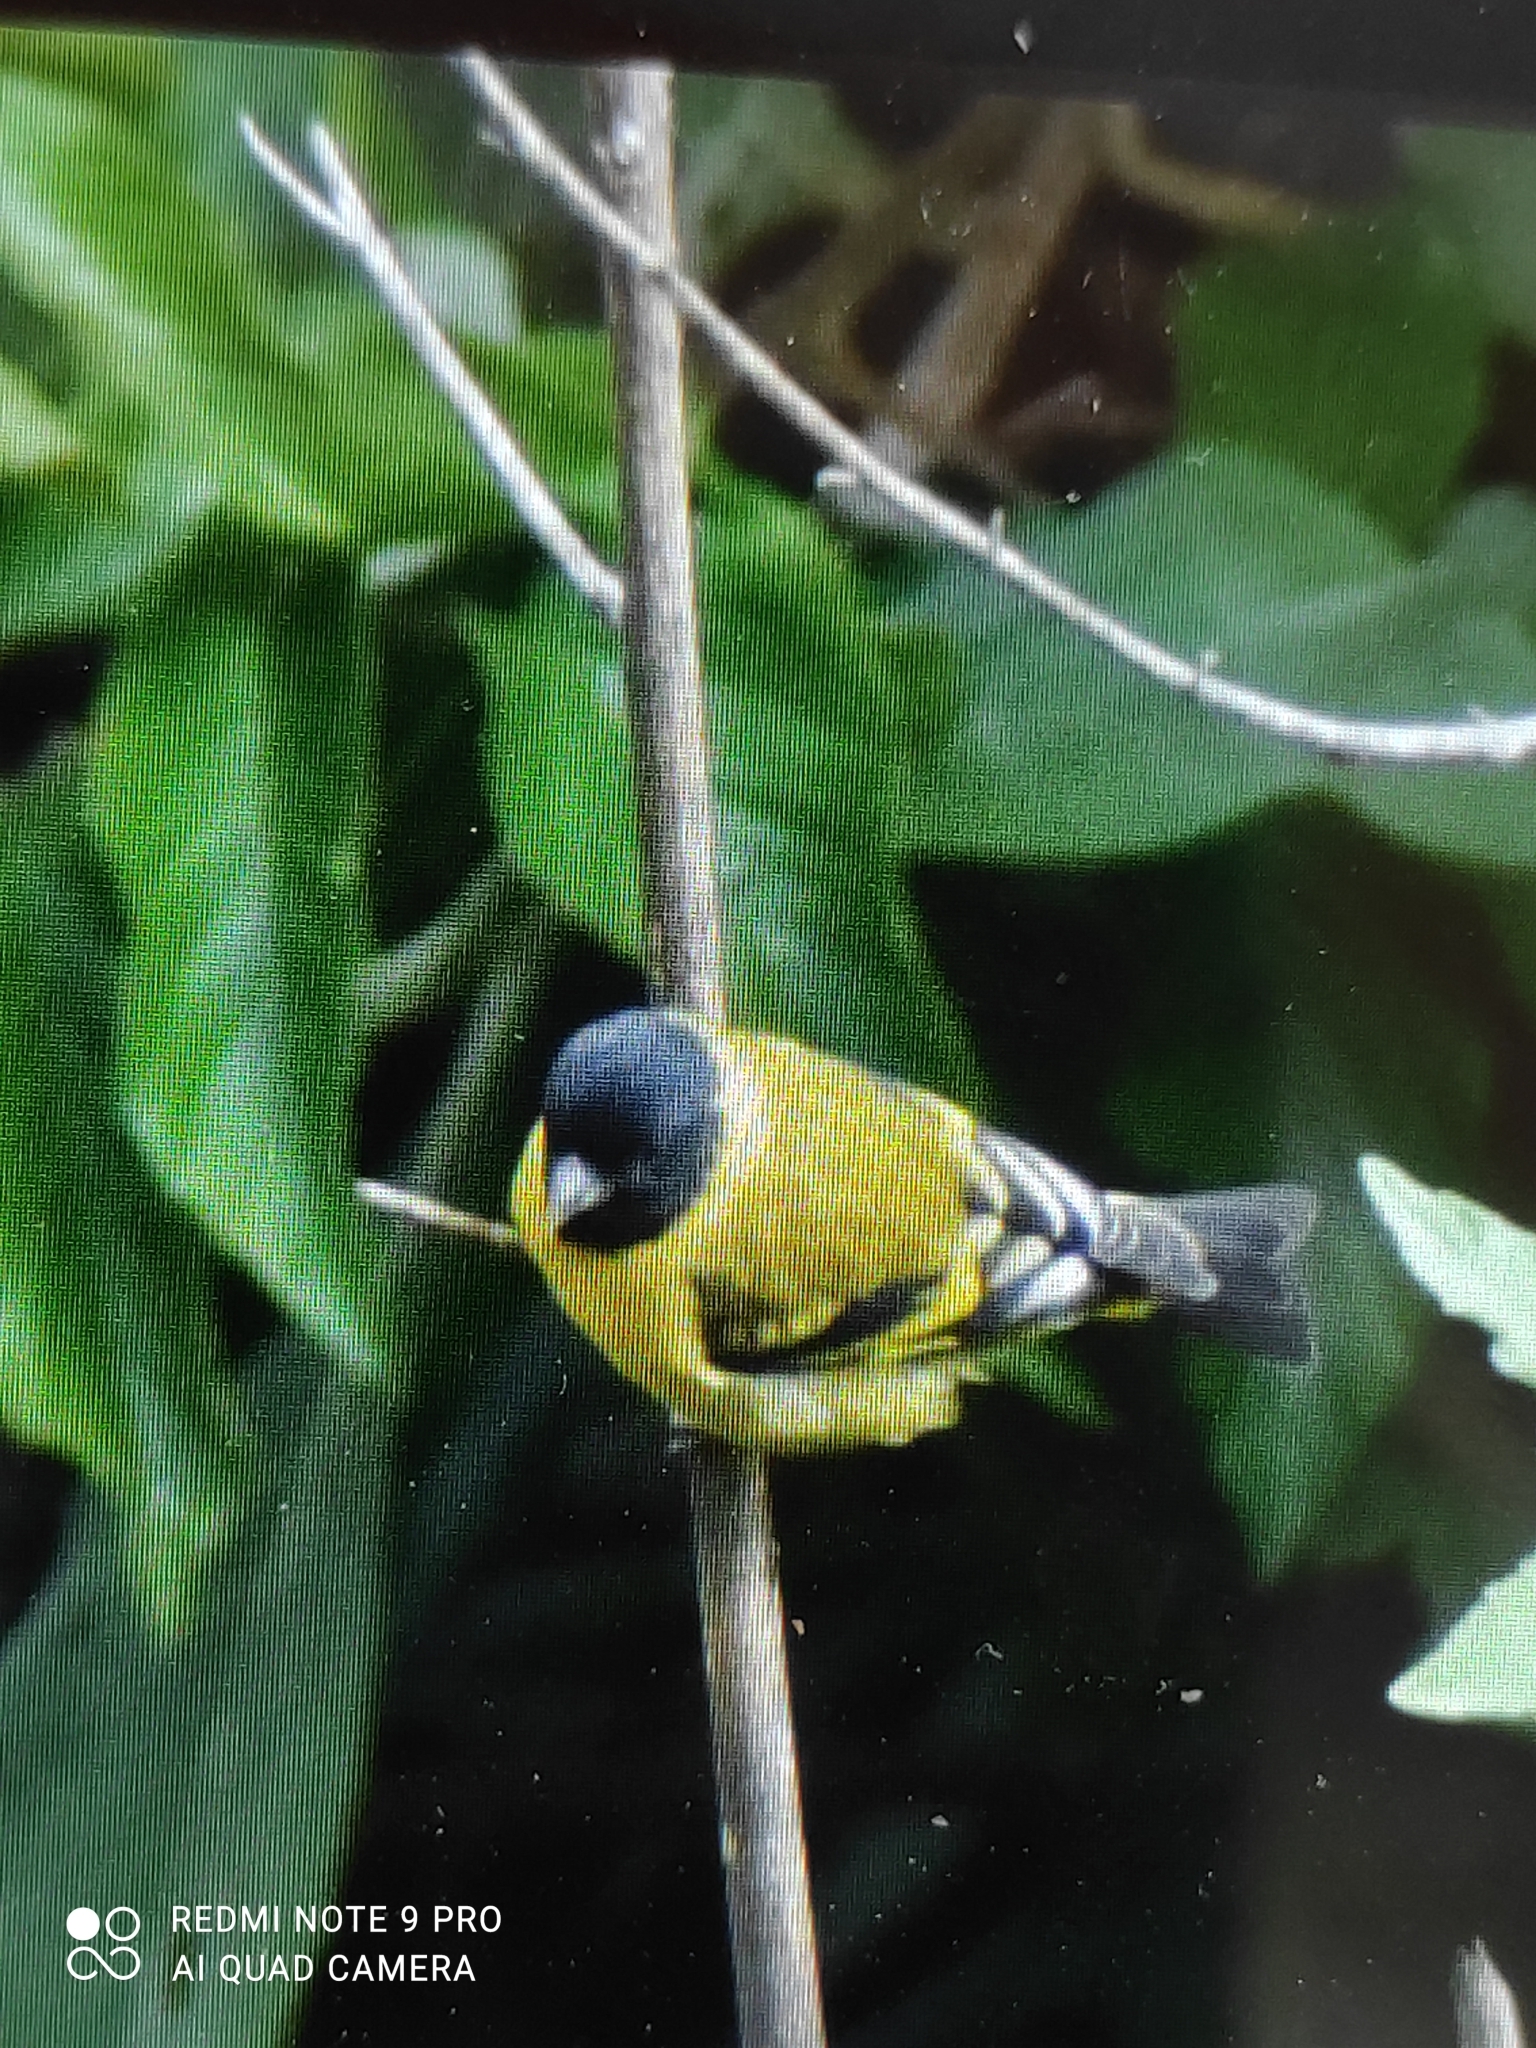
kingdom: Animalia
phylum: Chordata
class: Aves
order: Passeriformes
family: Fringillidae
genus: Spinus
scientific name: Spinus magellanicus
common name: Hooded siskin
